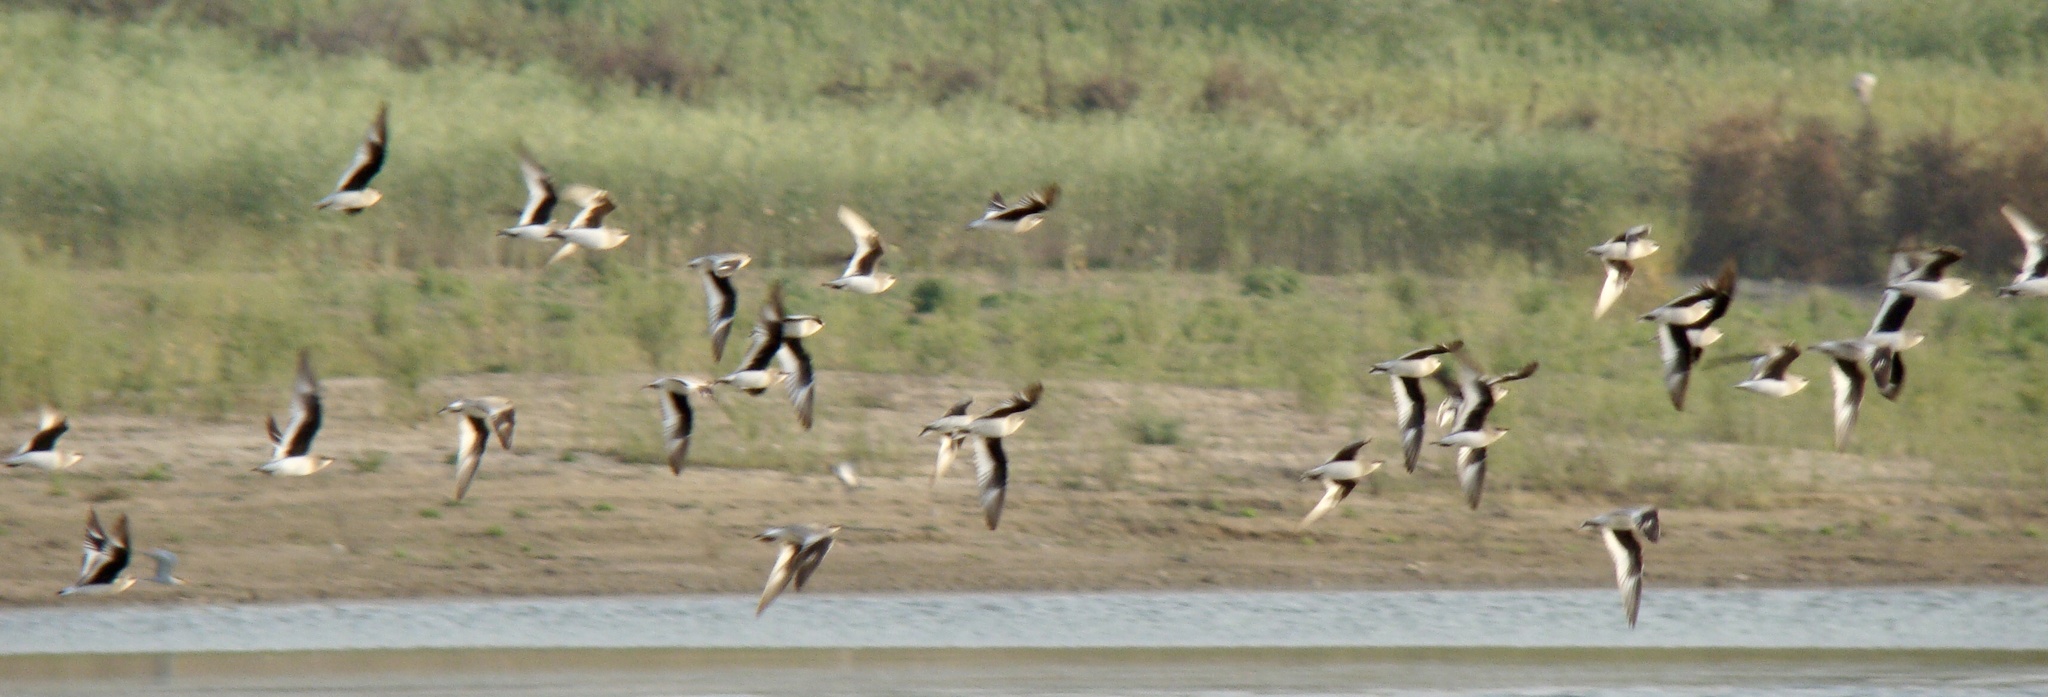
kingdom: Animalia
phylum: Chordata
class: Aves
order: Charadriiformes
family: Glareolidae
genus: Glareola
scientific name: Glareola lactea
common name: Small pratincole
